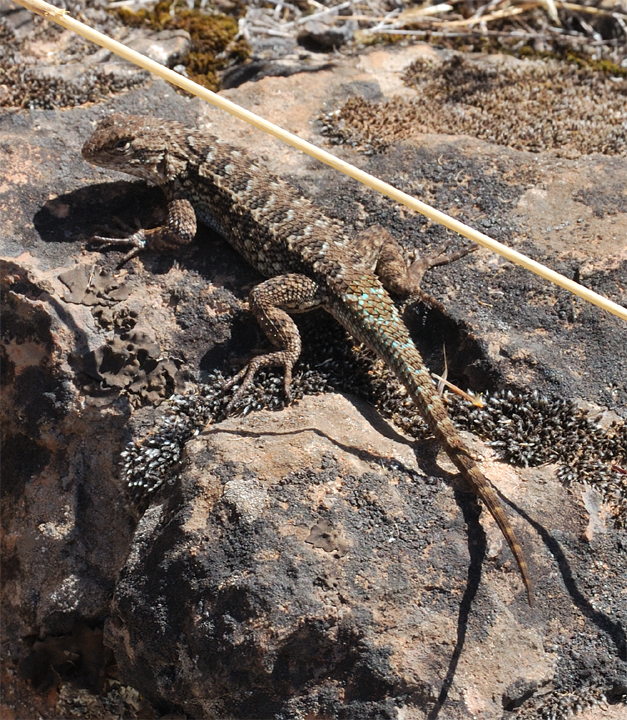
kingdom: Animalia
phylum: Chordata
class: Squamata
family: Phrynosomatidae
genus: Sceloporus
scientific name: Sceloporus occidentalis
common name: Western fence lizard
